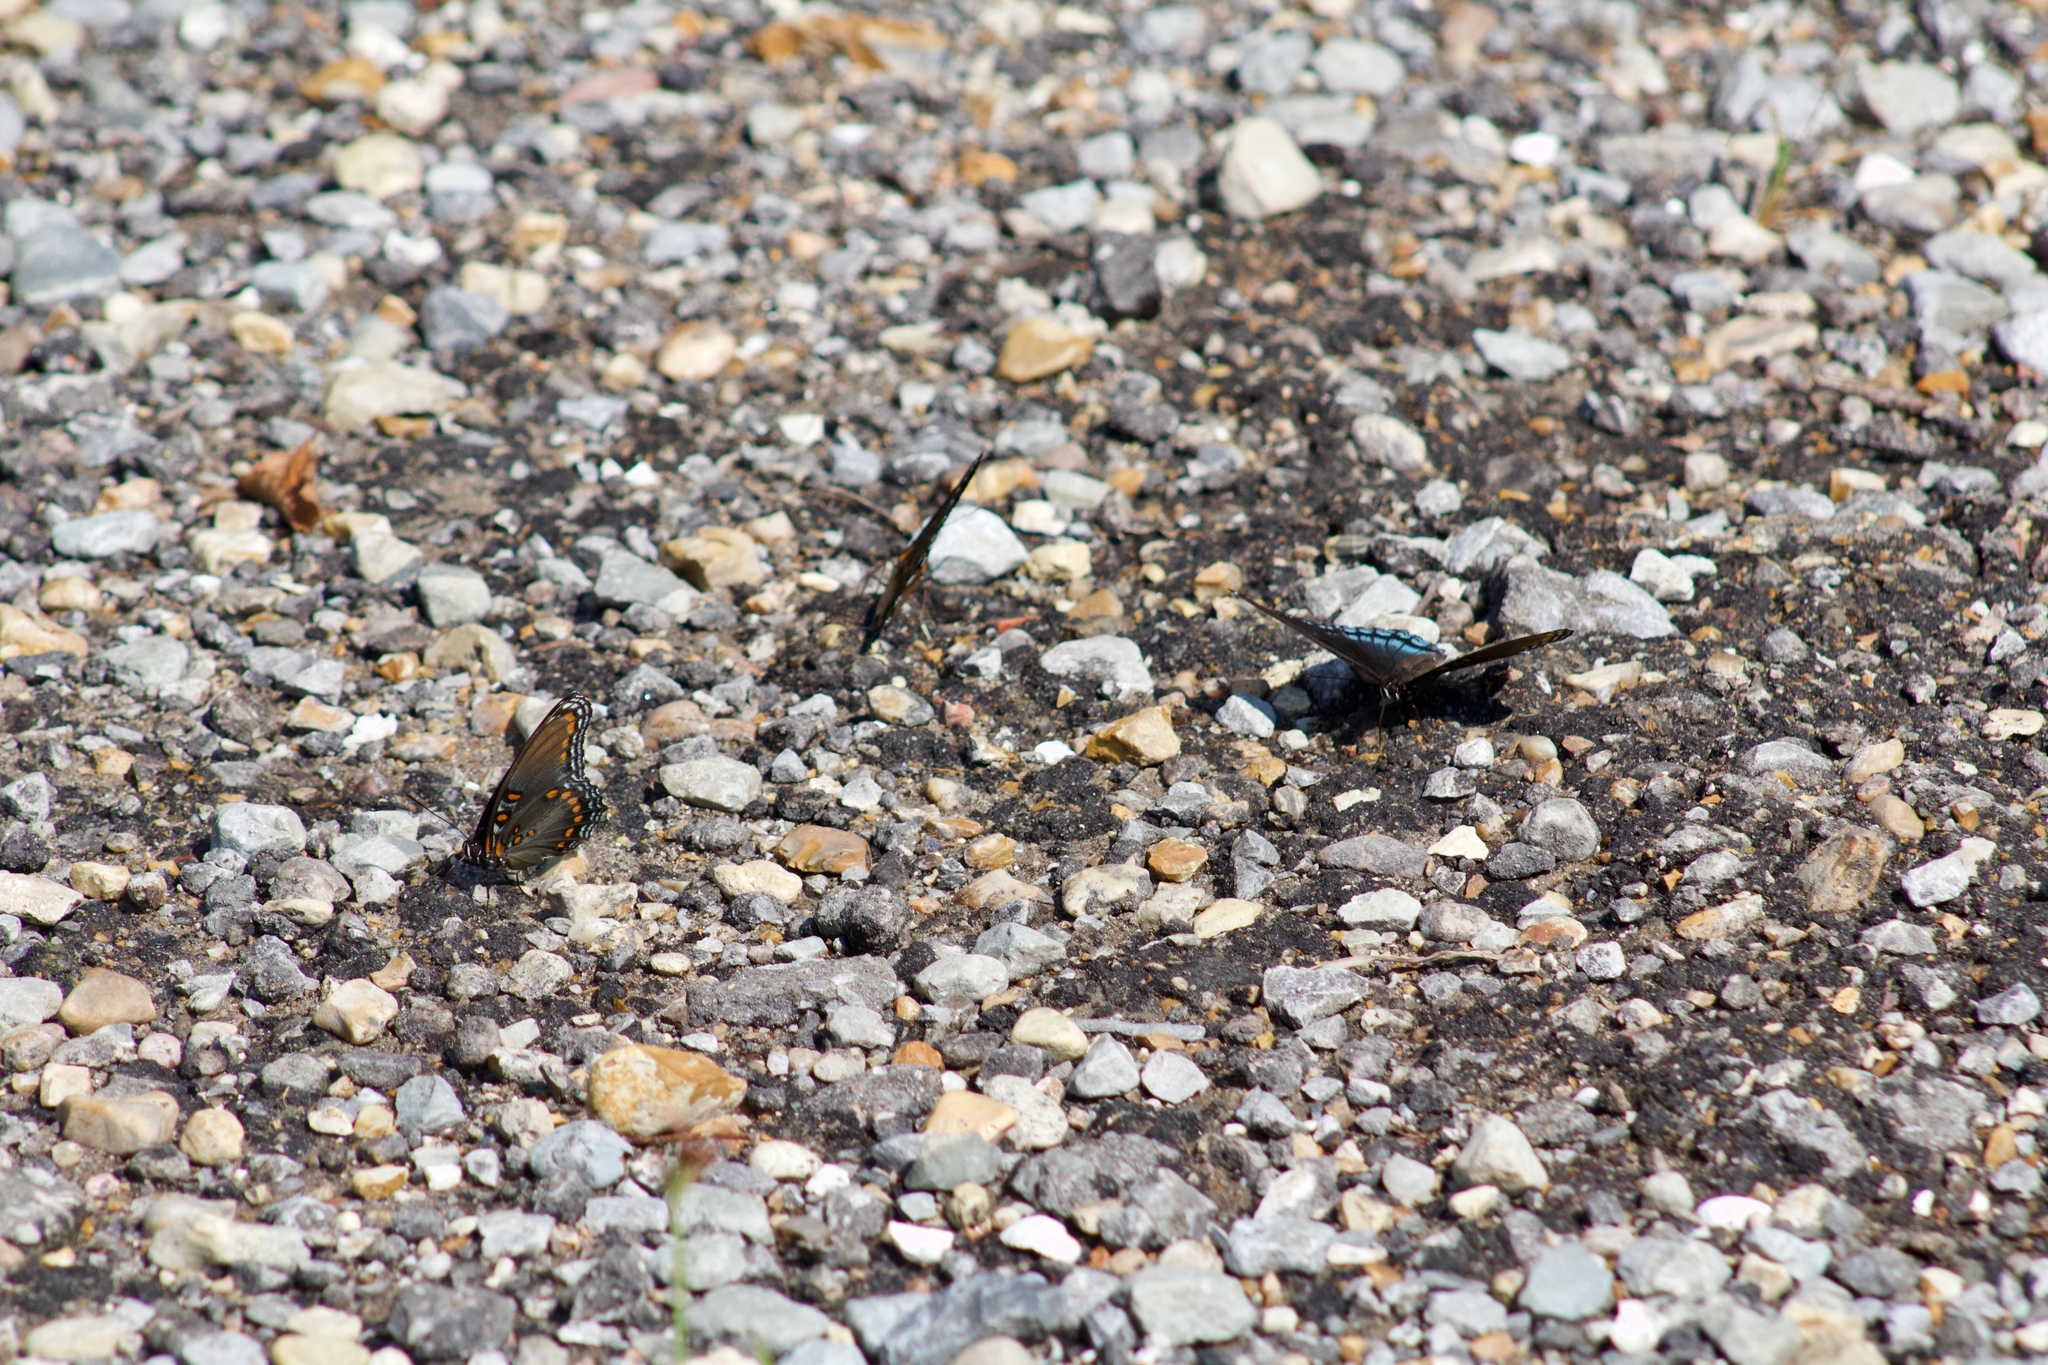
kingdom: Animalia
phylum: Arthropoda
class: Insecta
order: Lepidoptera
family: Nymphalidae
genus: Limenitis
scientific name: Limenitis arthemis
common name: Red-spotted admiral
